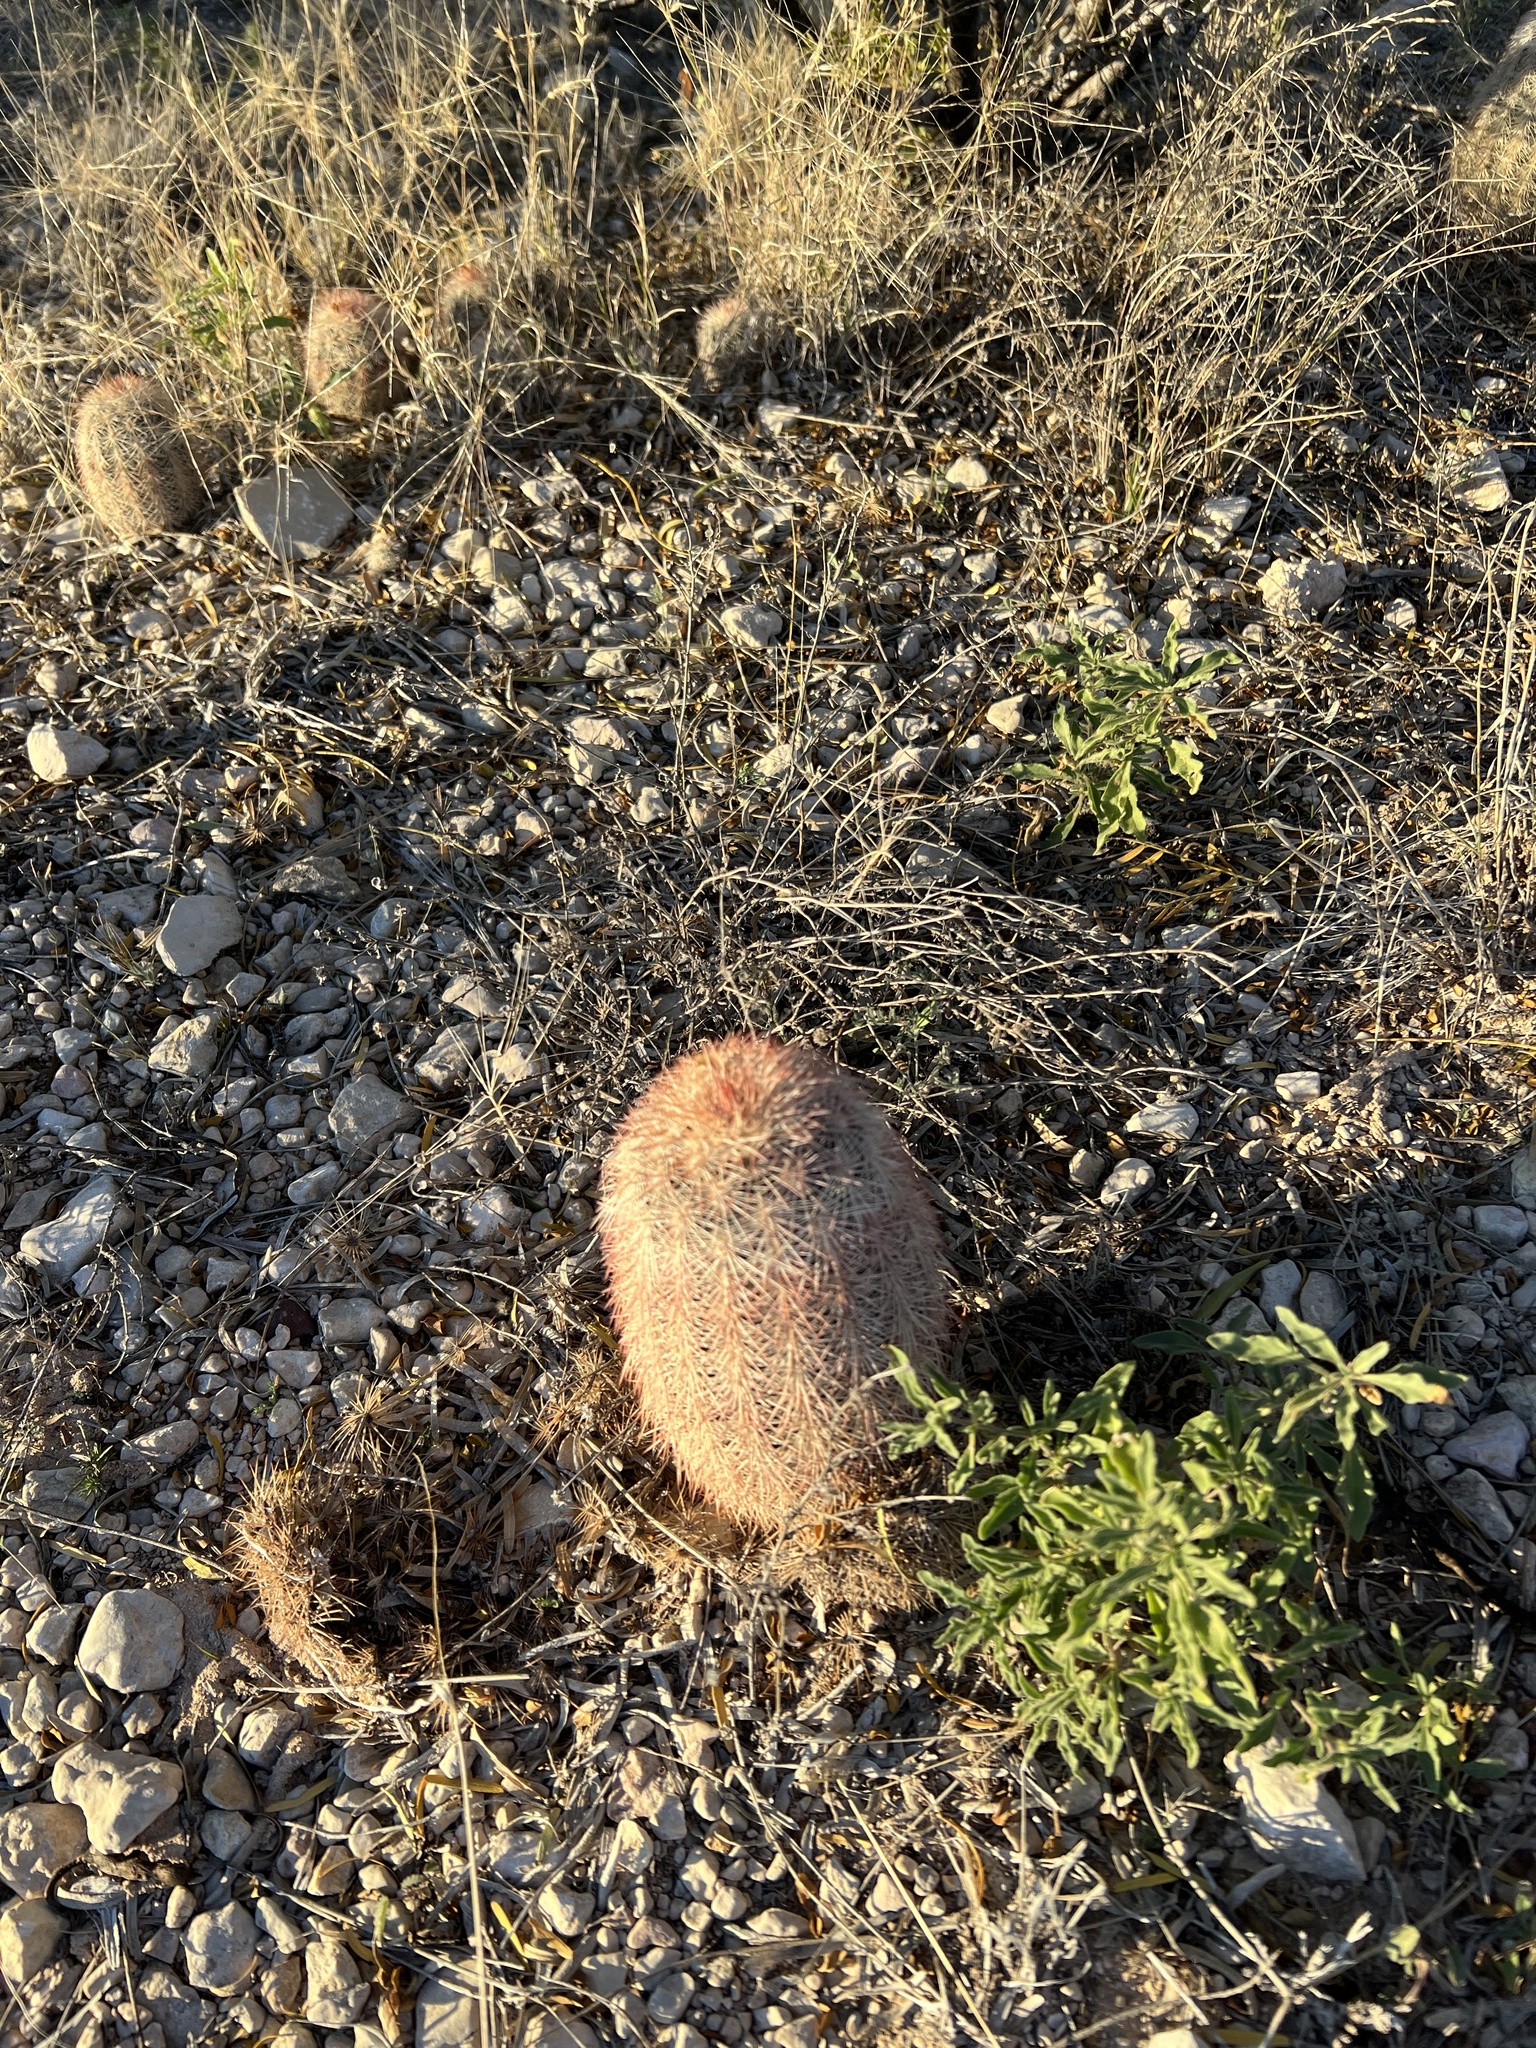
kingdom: Plantae
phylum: Tracheophyta
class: Magnoliopsida
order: Caryophyllales
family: Cactaceae
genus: Echinocereus
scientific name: Echinocereus dasyacanthus
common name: Spiny hedgehog cactus
